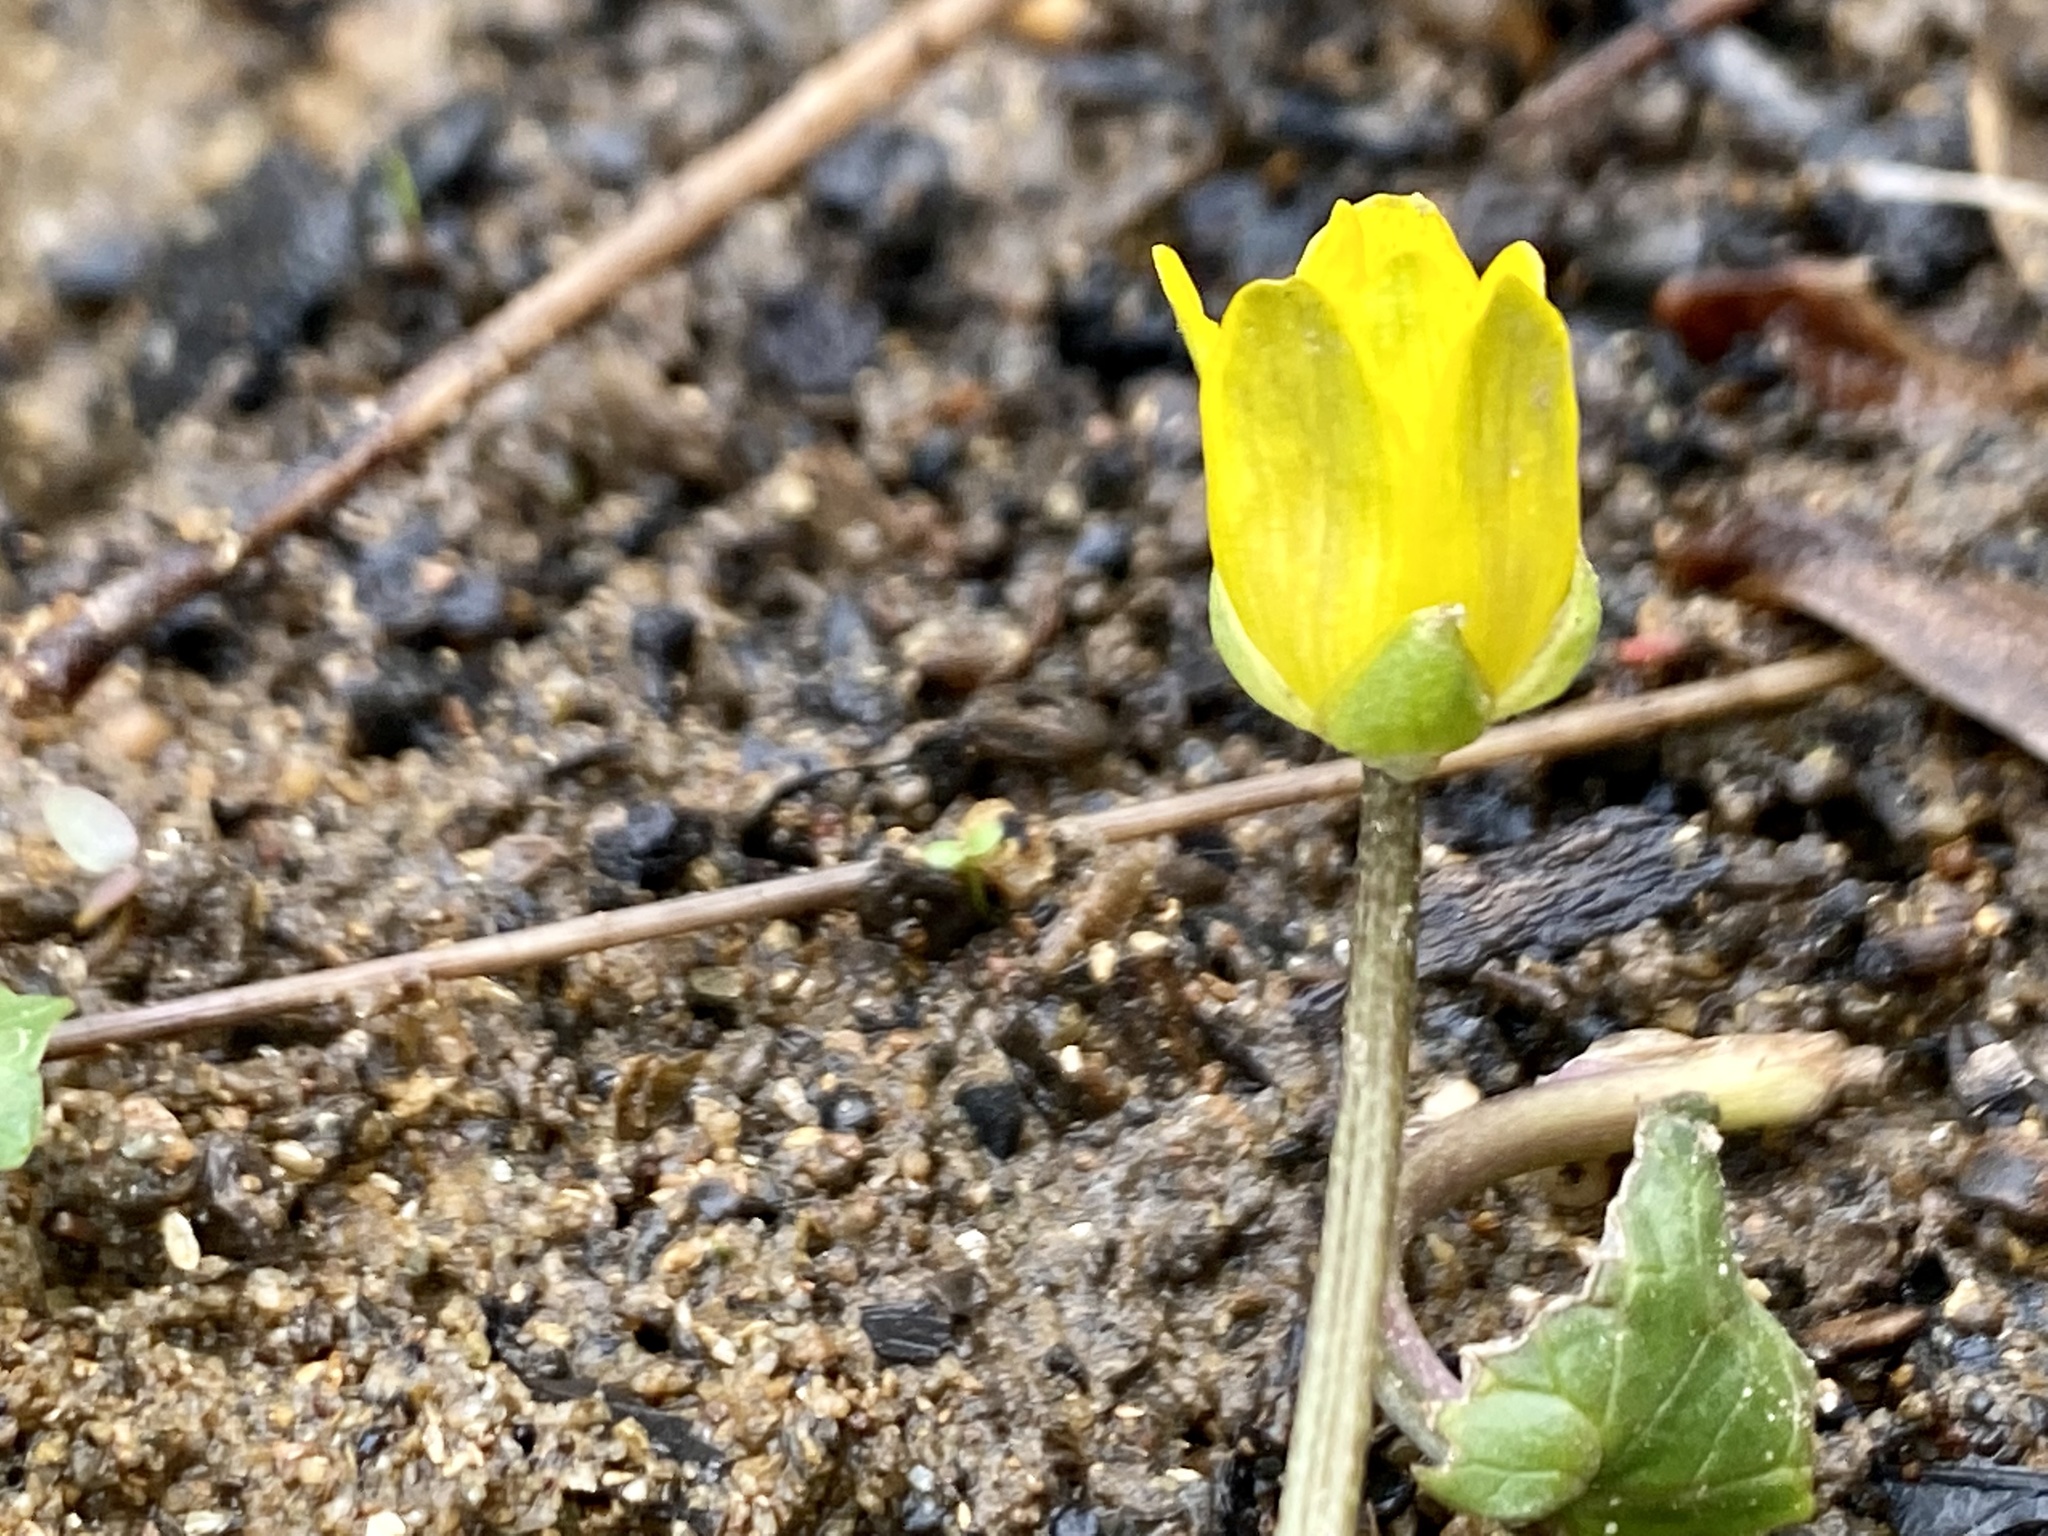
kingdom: Plantae
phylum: Tracheophyta
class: Magnoliopsida
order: Ranunculales
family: Ranunculaceae
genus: Ficaria
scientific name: Ficaria verna
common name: Lesser celandine
